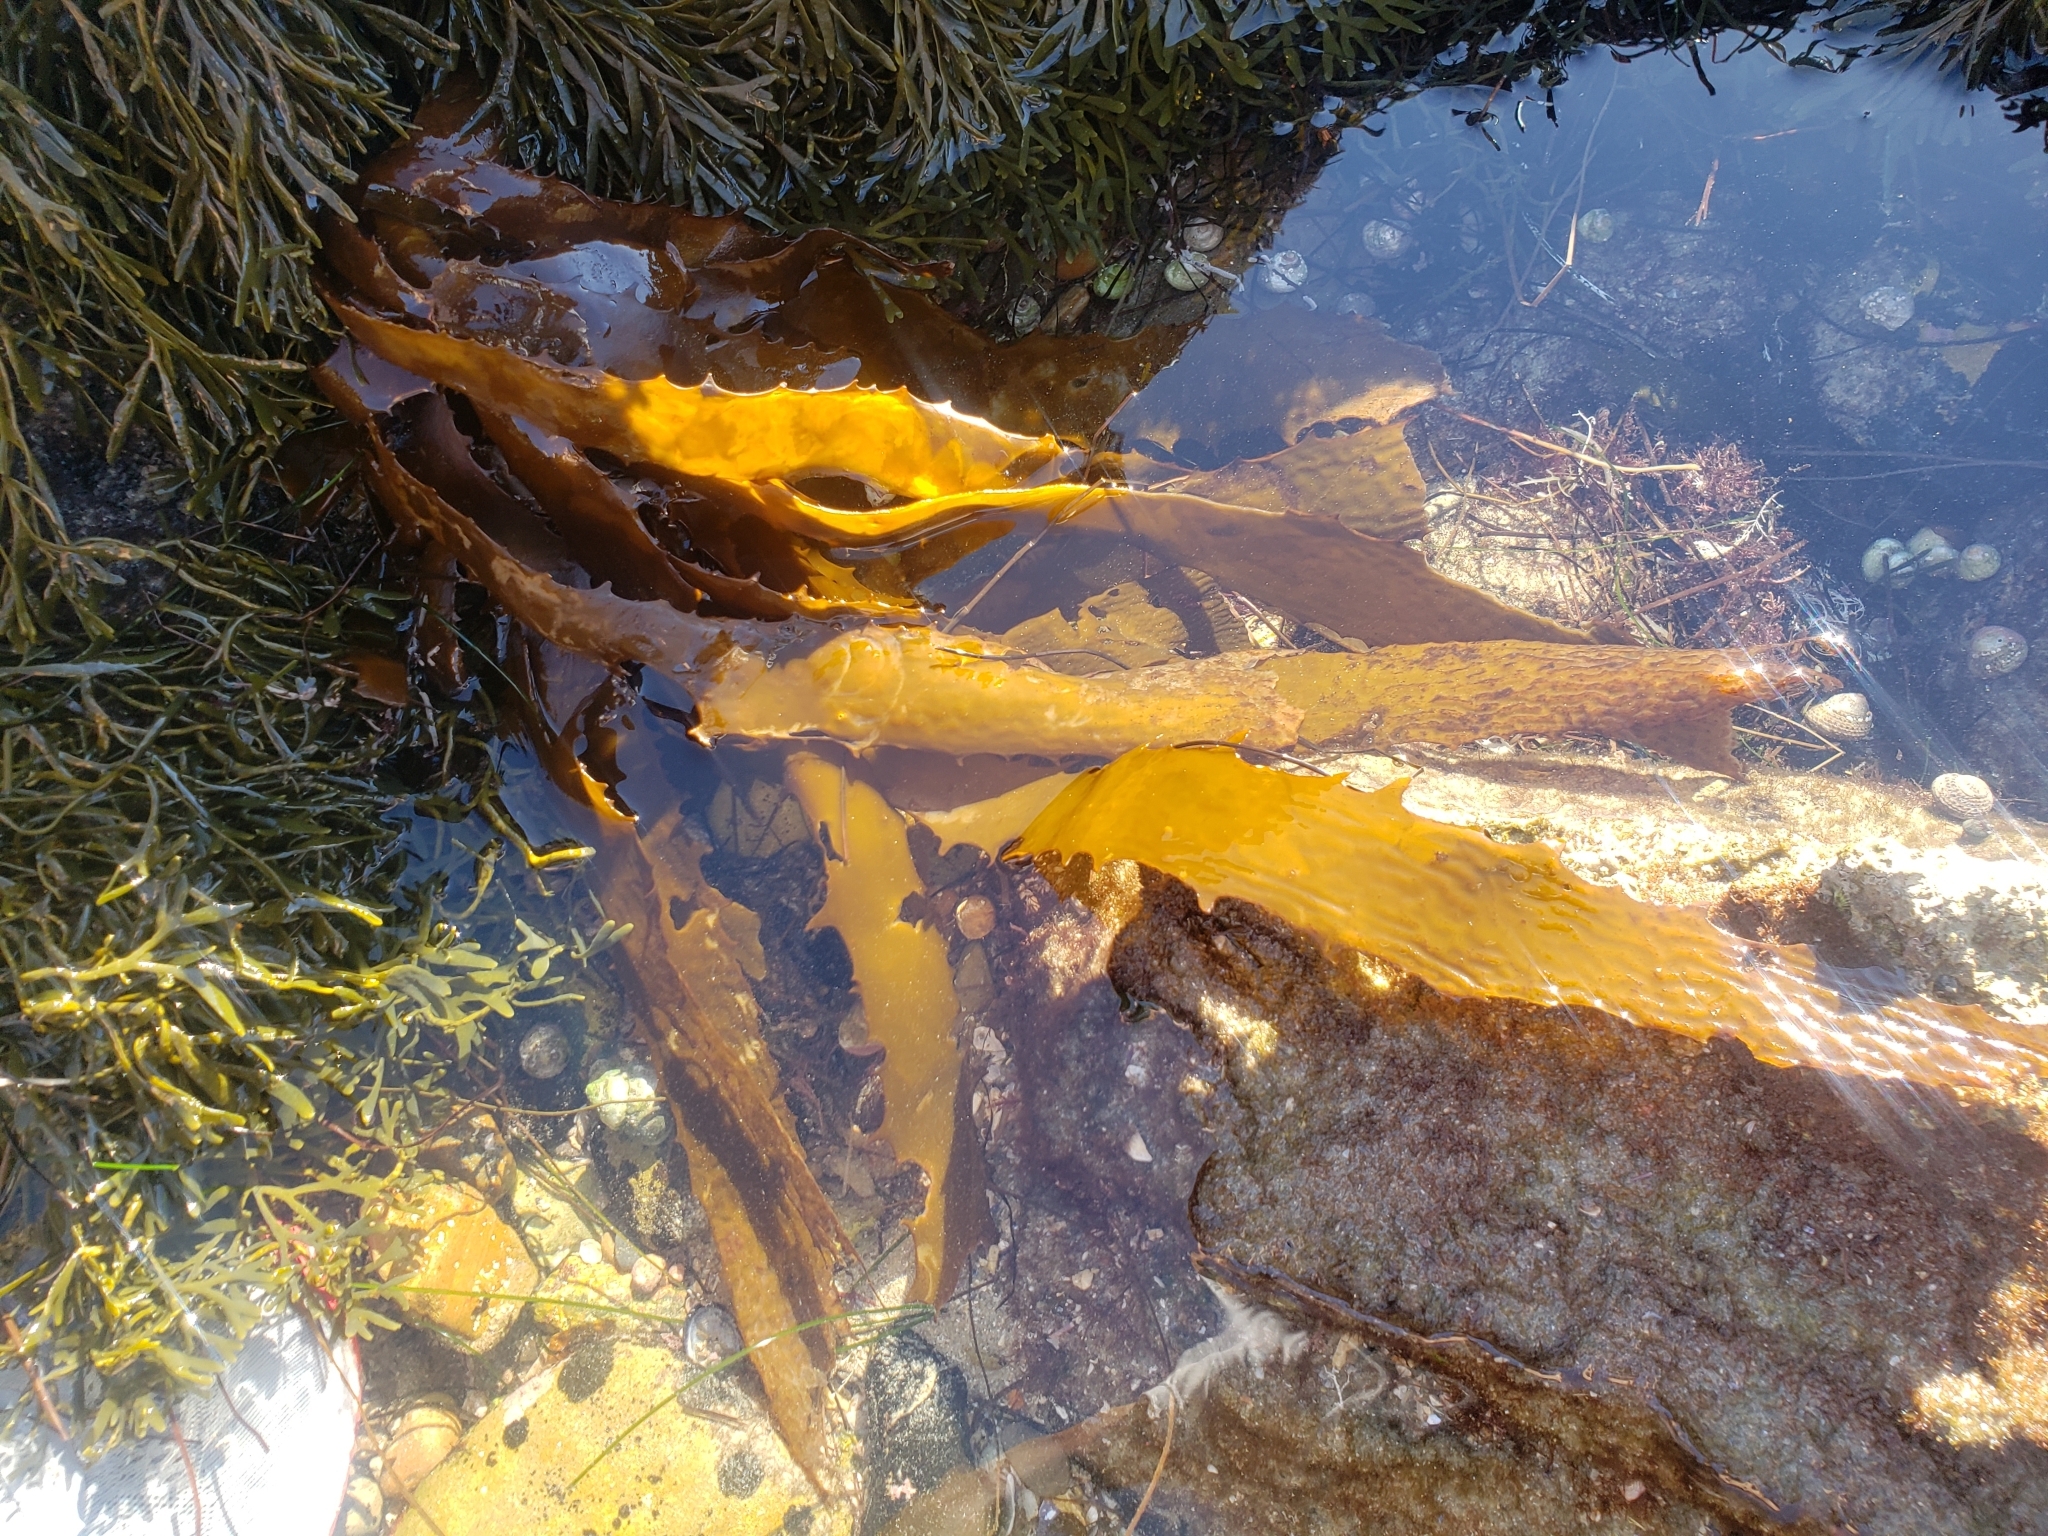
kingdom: Chromista
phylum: Ochrophyta
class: Phaeophyceae
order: Laminariales
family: Lessoniaceae
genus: Eisenia
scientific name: Eisenia arborea
